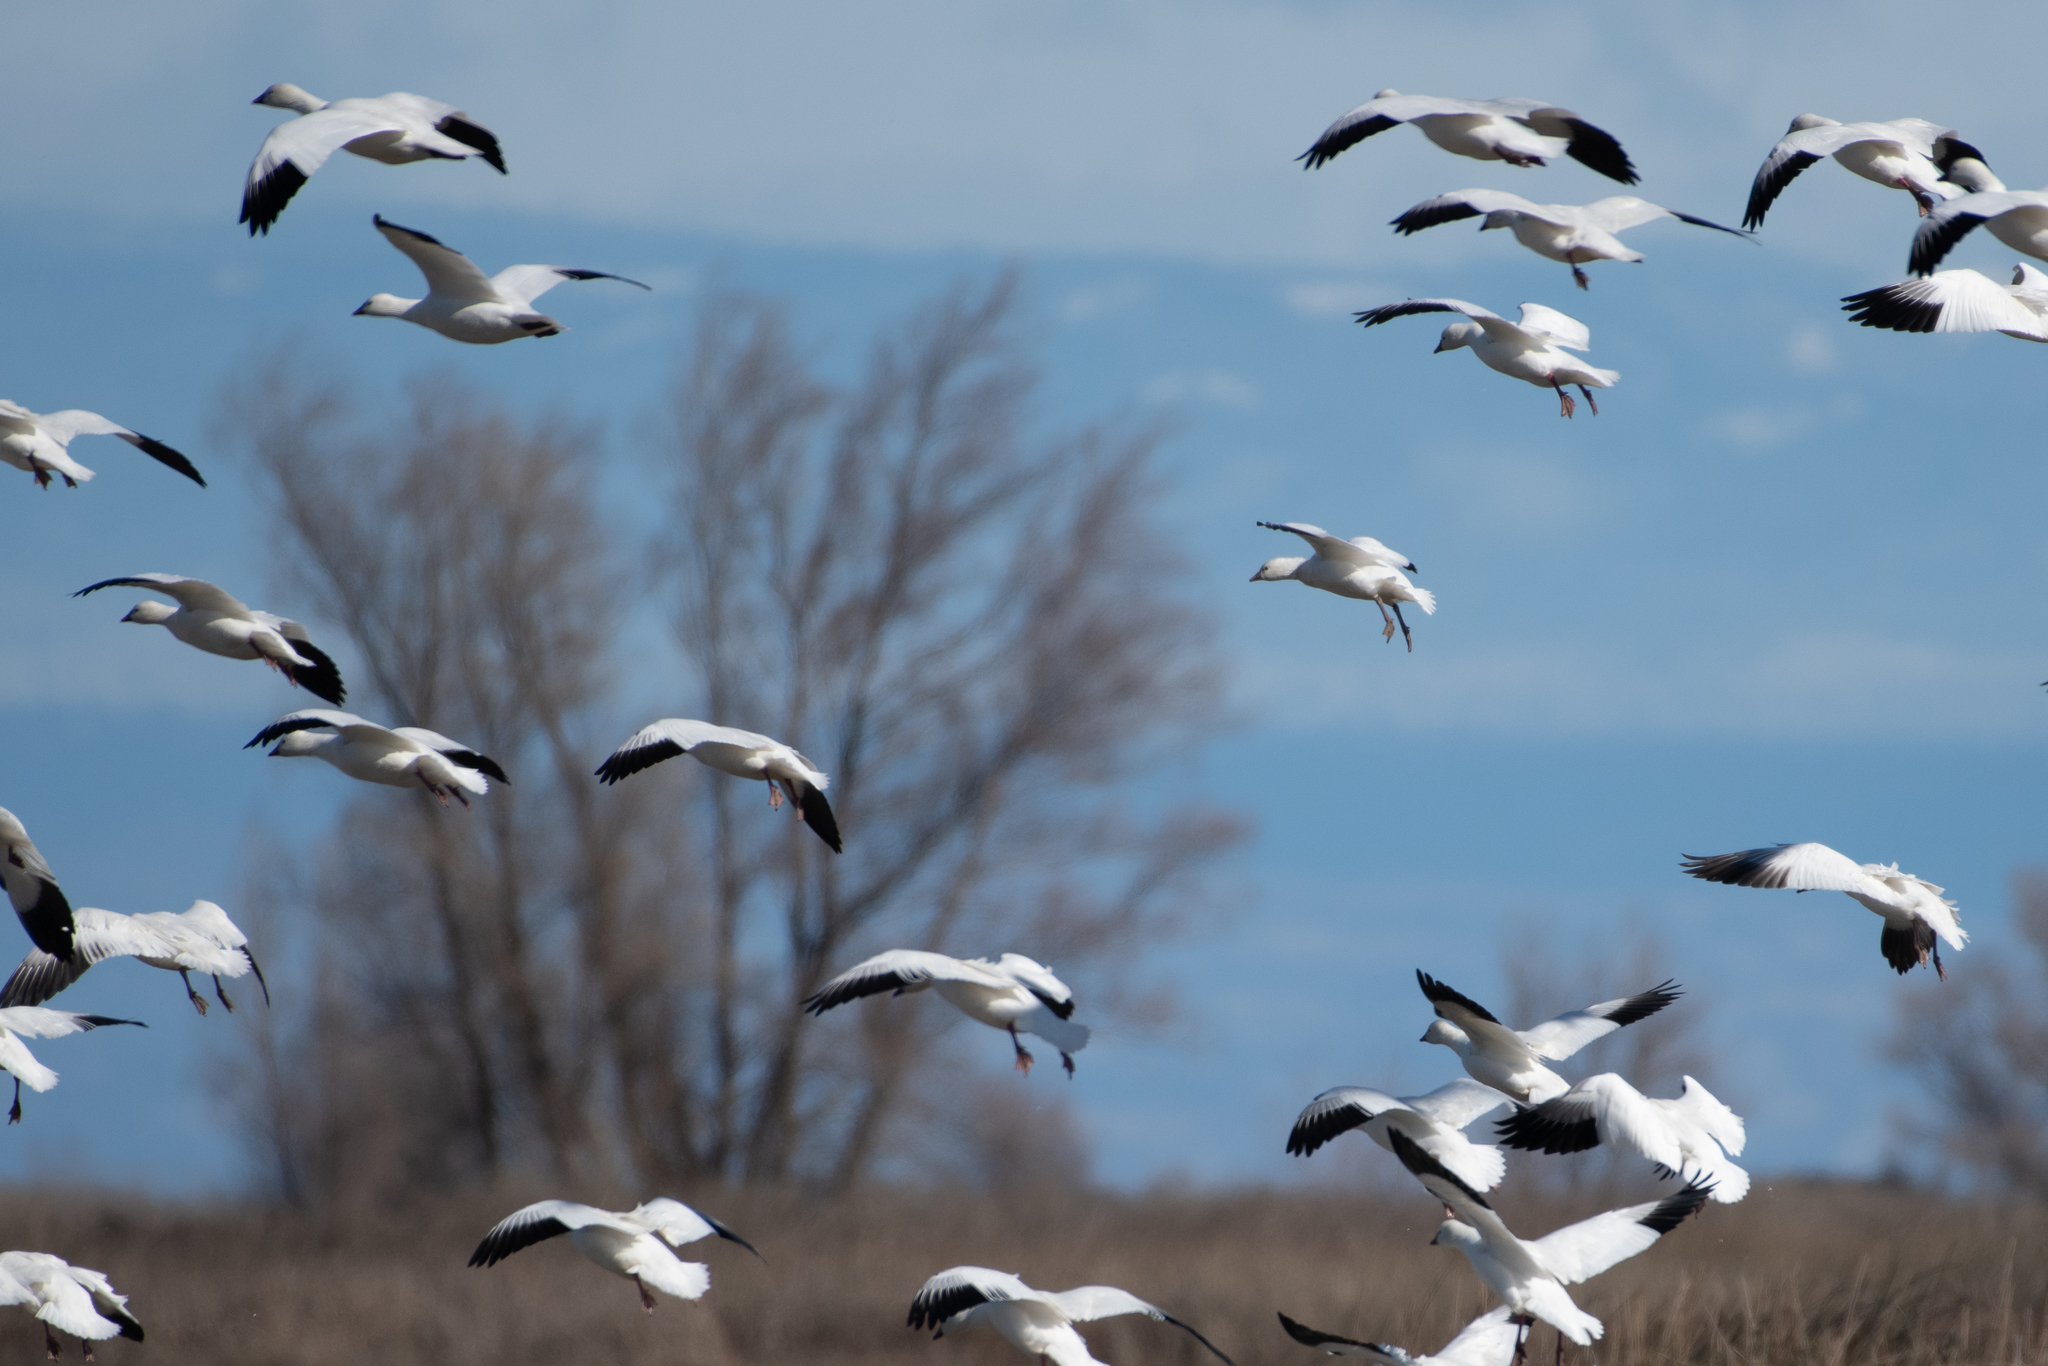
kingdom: Animalia
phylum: Chordata
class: Aves
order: Anseriformes
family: Anatidae
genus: Anser
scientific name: Anser caerulescens
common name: Snow goose
